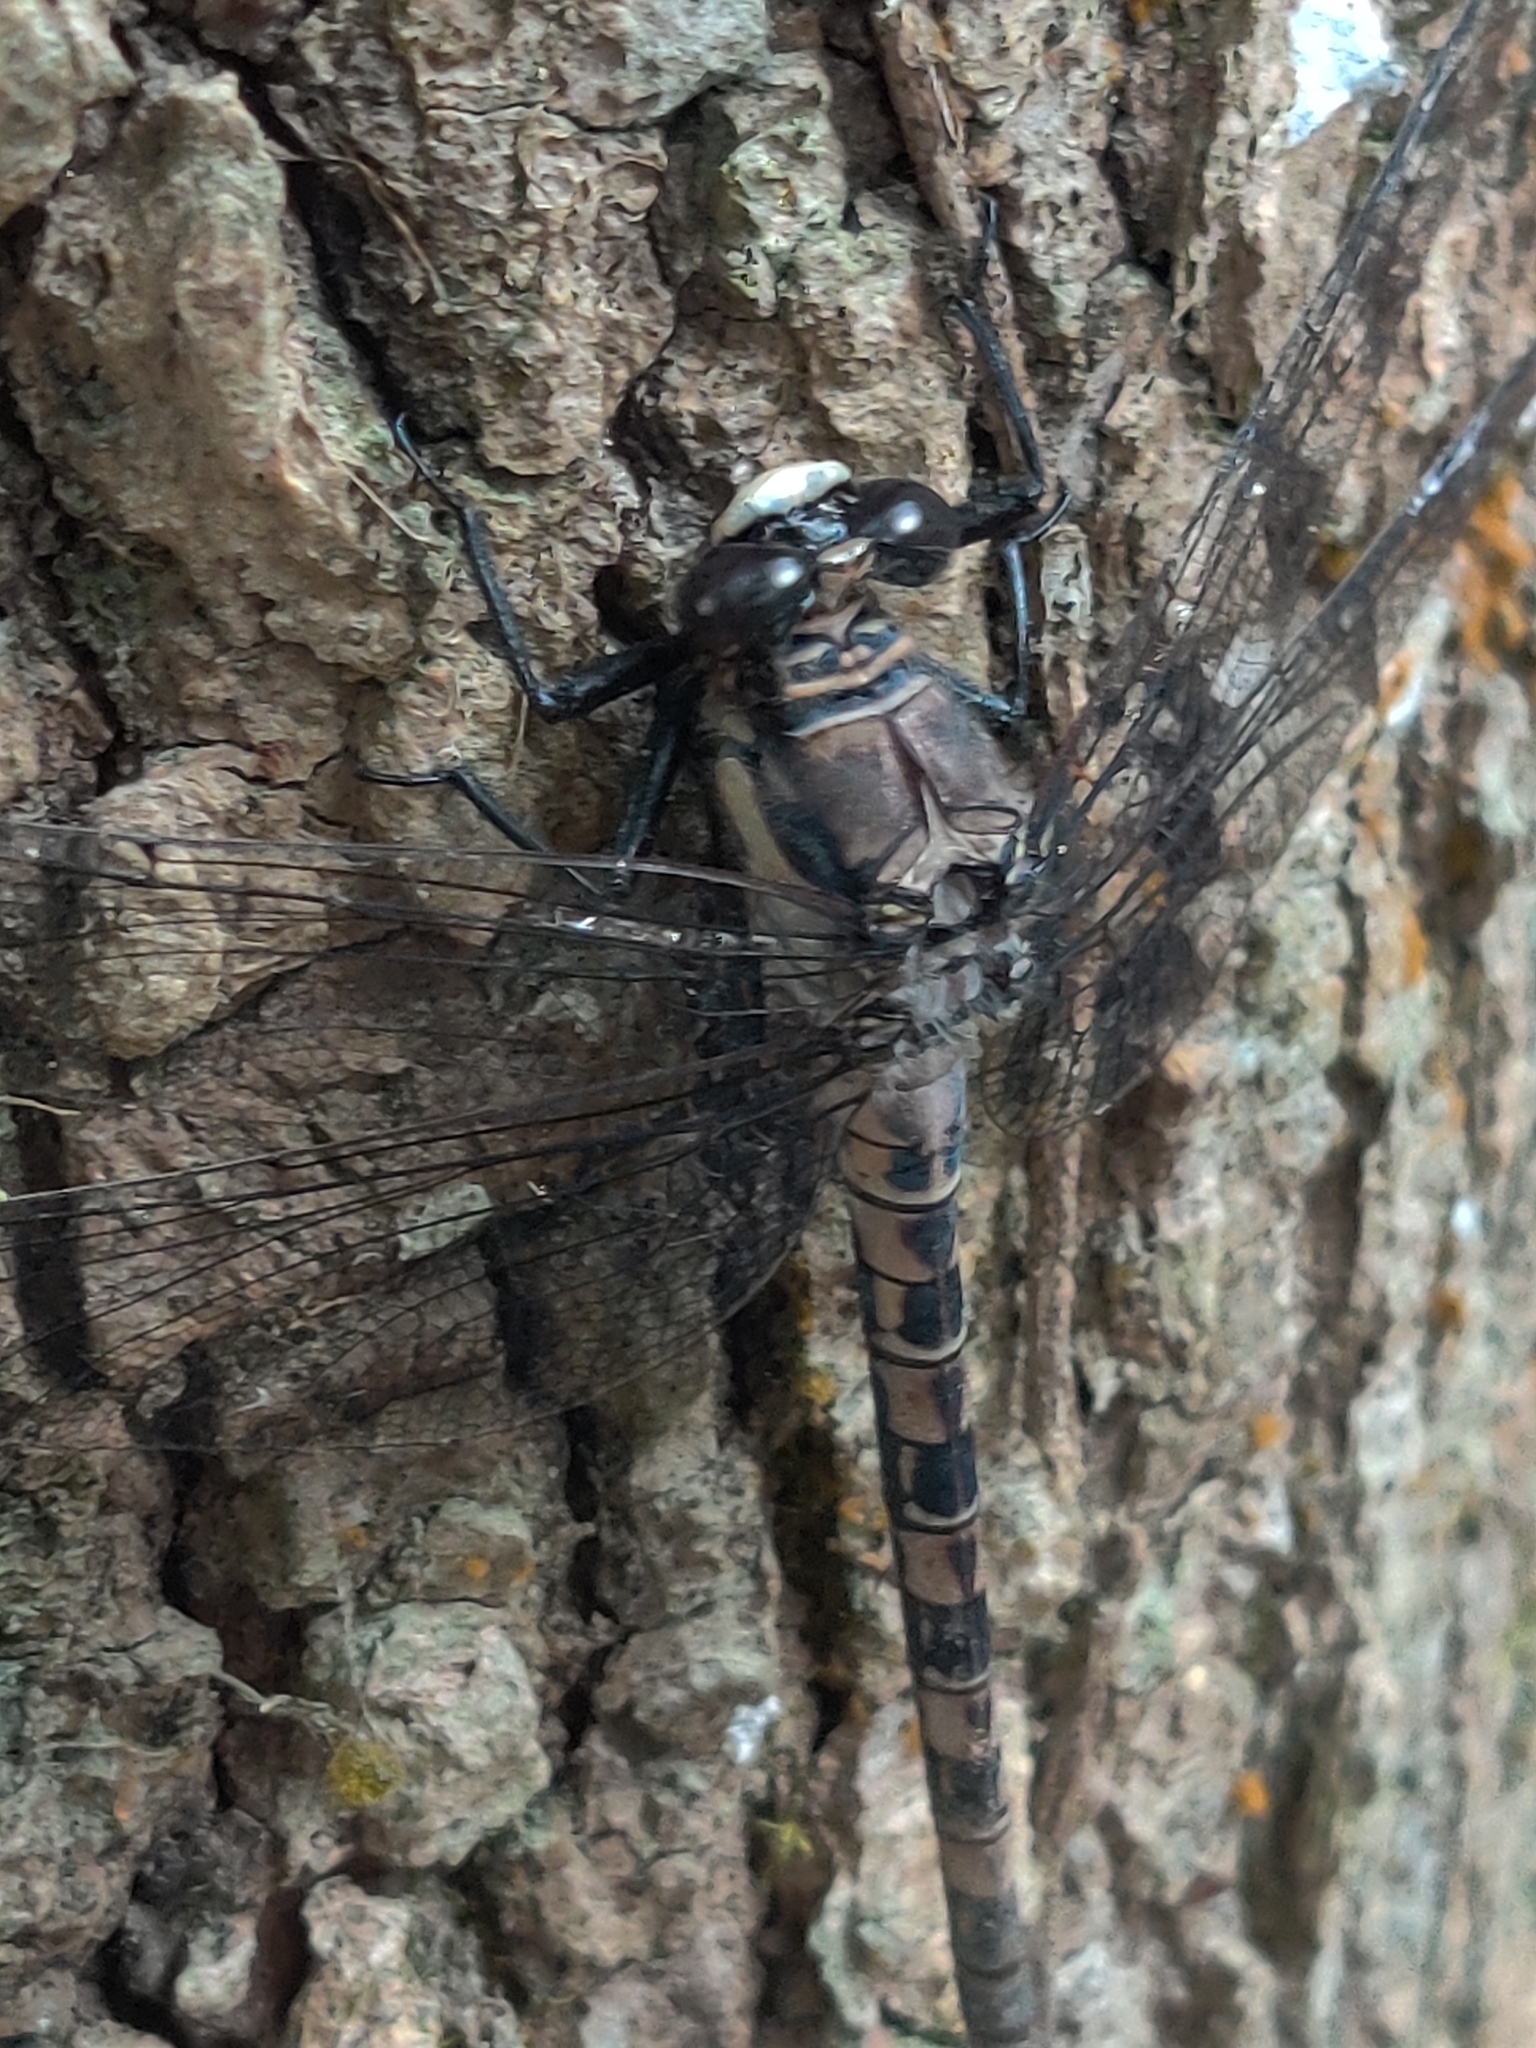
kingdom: Animalia
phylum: Arthropoda
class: Insecta
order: Odonata
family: Petaluridae
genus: Tachopteryx
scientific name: Tachopteryx thoreyi
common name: Gray petaltail
